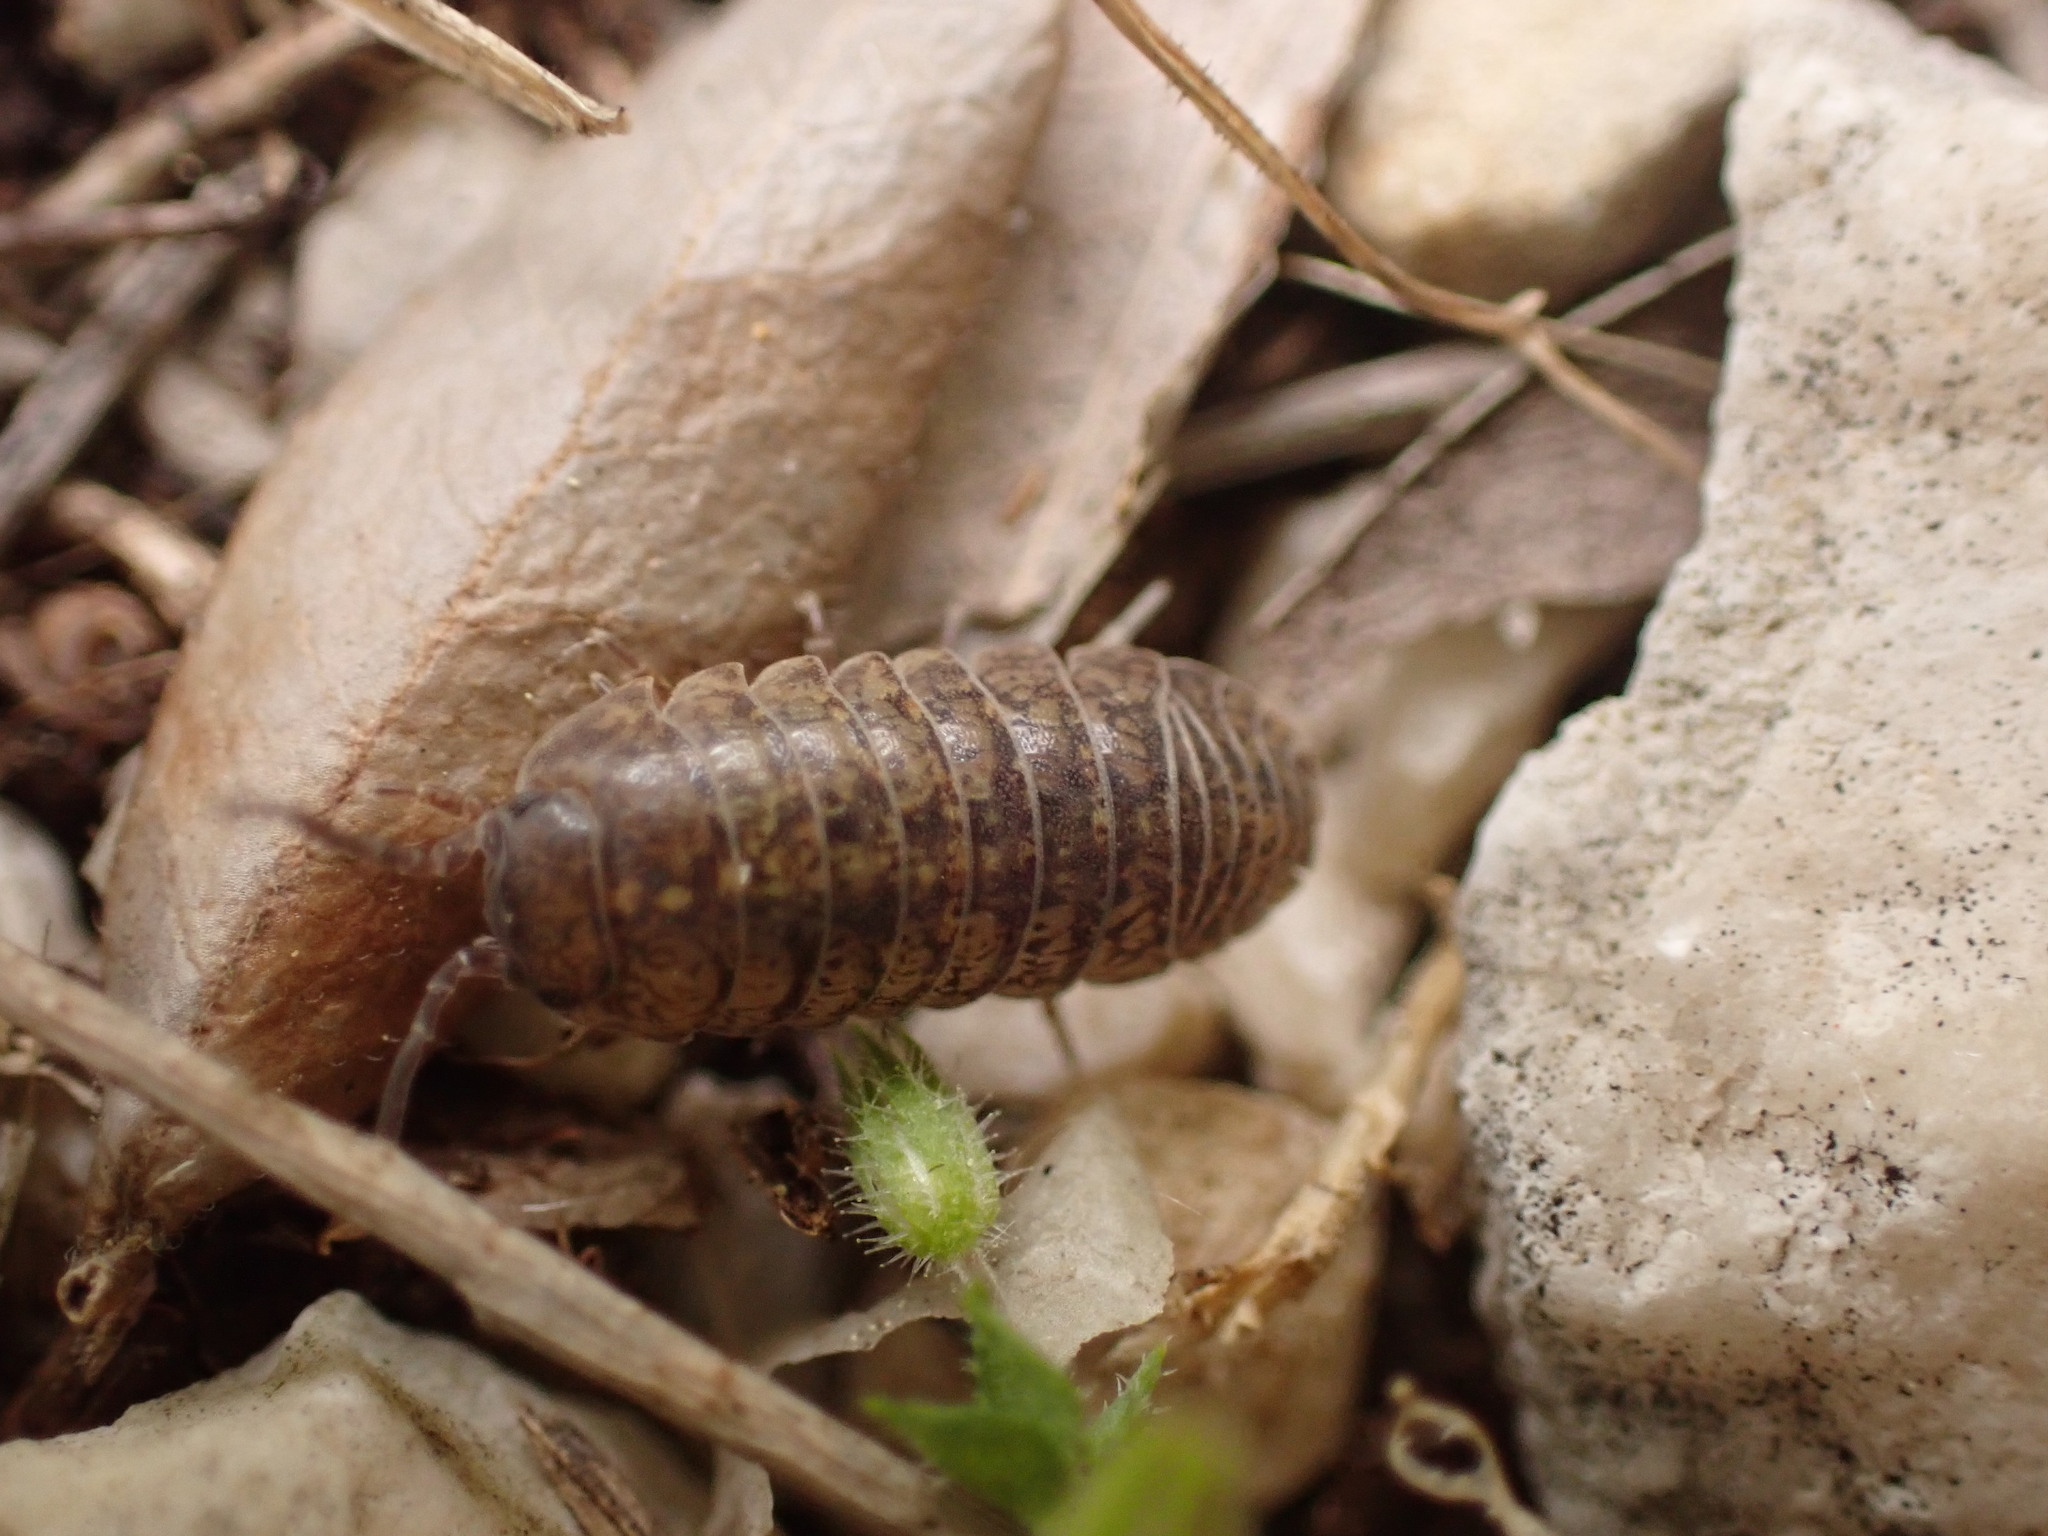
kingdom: Animalia
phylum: Arthropoda
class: Malacostraca
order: Isopoda
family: Armadillidiidae
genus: Armadillidium
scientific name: Armadillidium arcangelii
